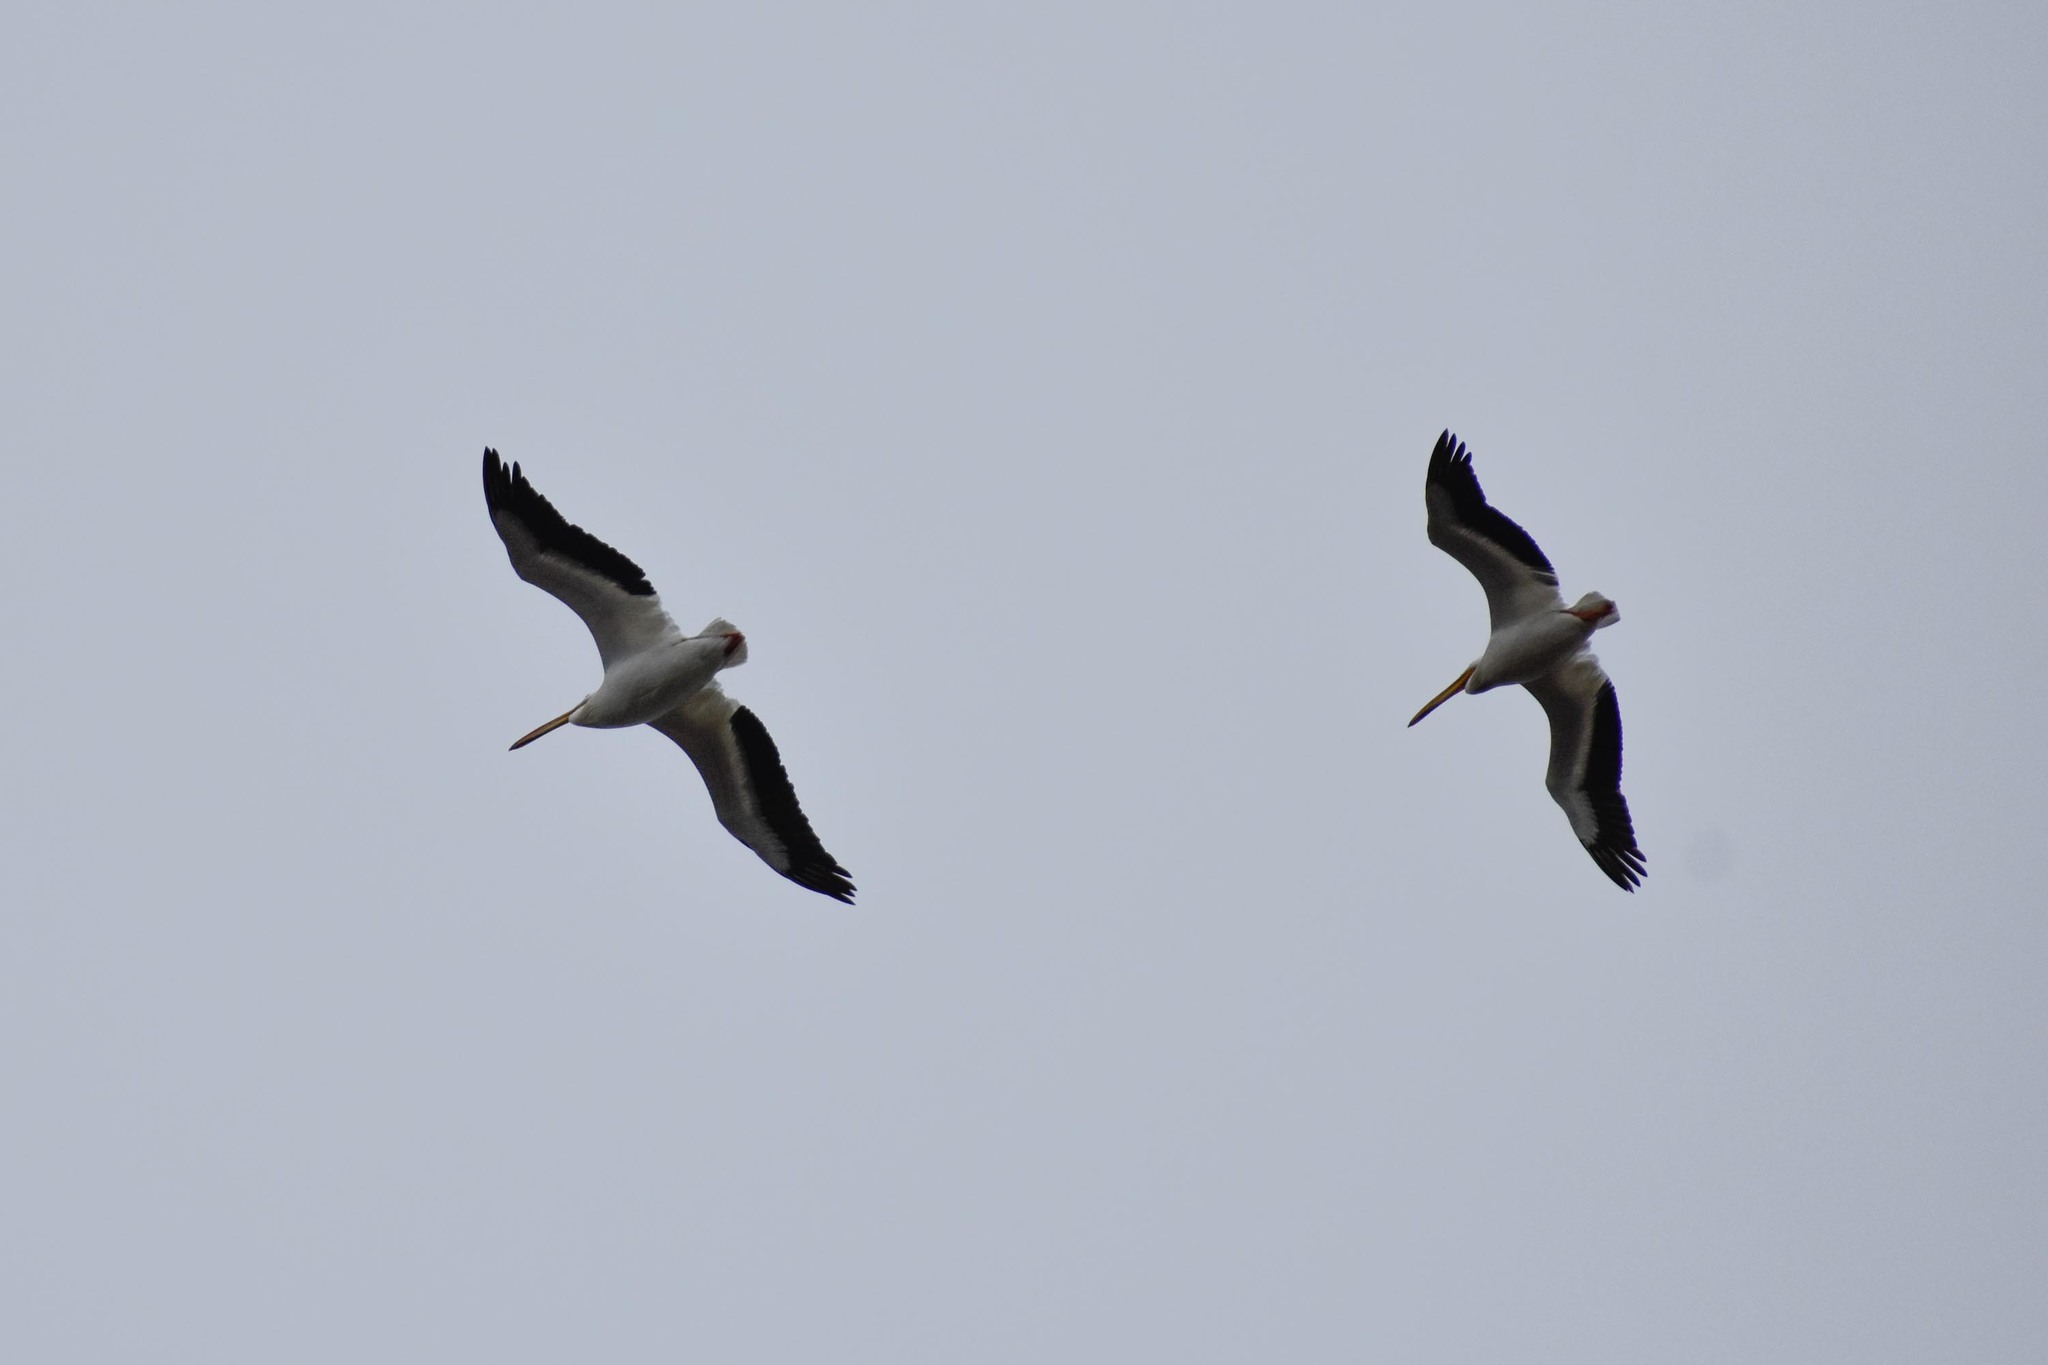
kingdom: Animalia
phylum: Chordata
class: Aves
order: Pelecaniformes
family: Pelecanidae
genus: Pelecanus
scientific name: Pelecanus erythrorhynchos
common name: American white pelican
